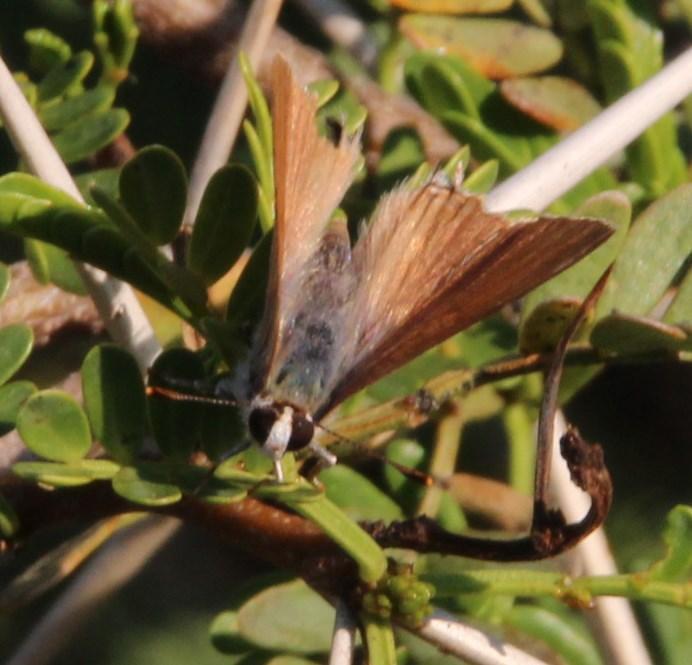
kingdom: Animalia
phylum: Arthropoda
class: Insecta
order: Lepidoptera
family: Lycaenidae
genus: Deudorix
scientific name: Deudorix antalus
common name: Brown playboy
